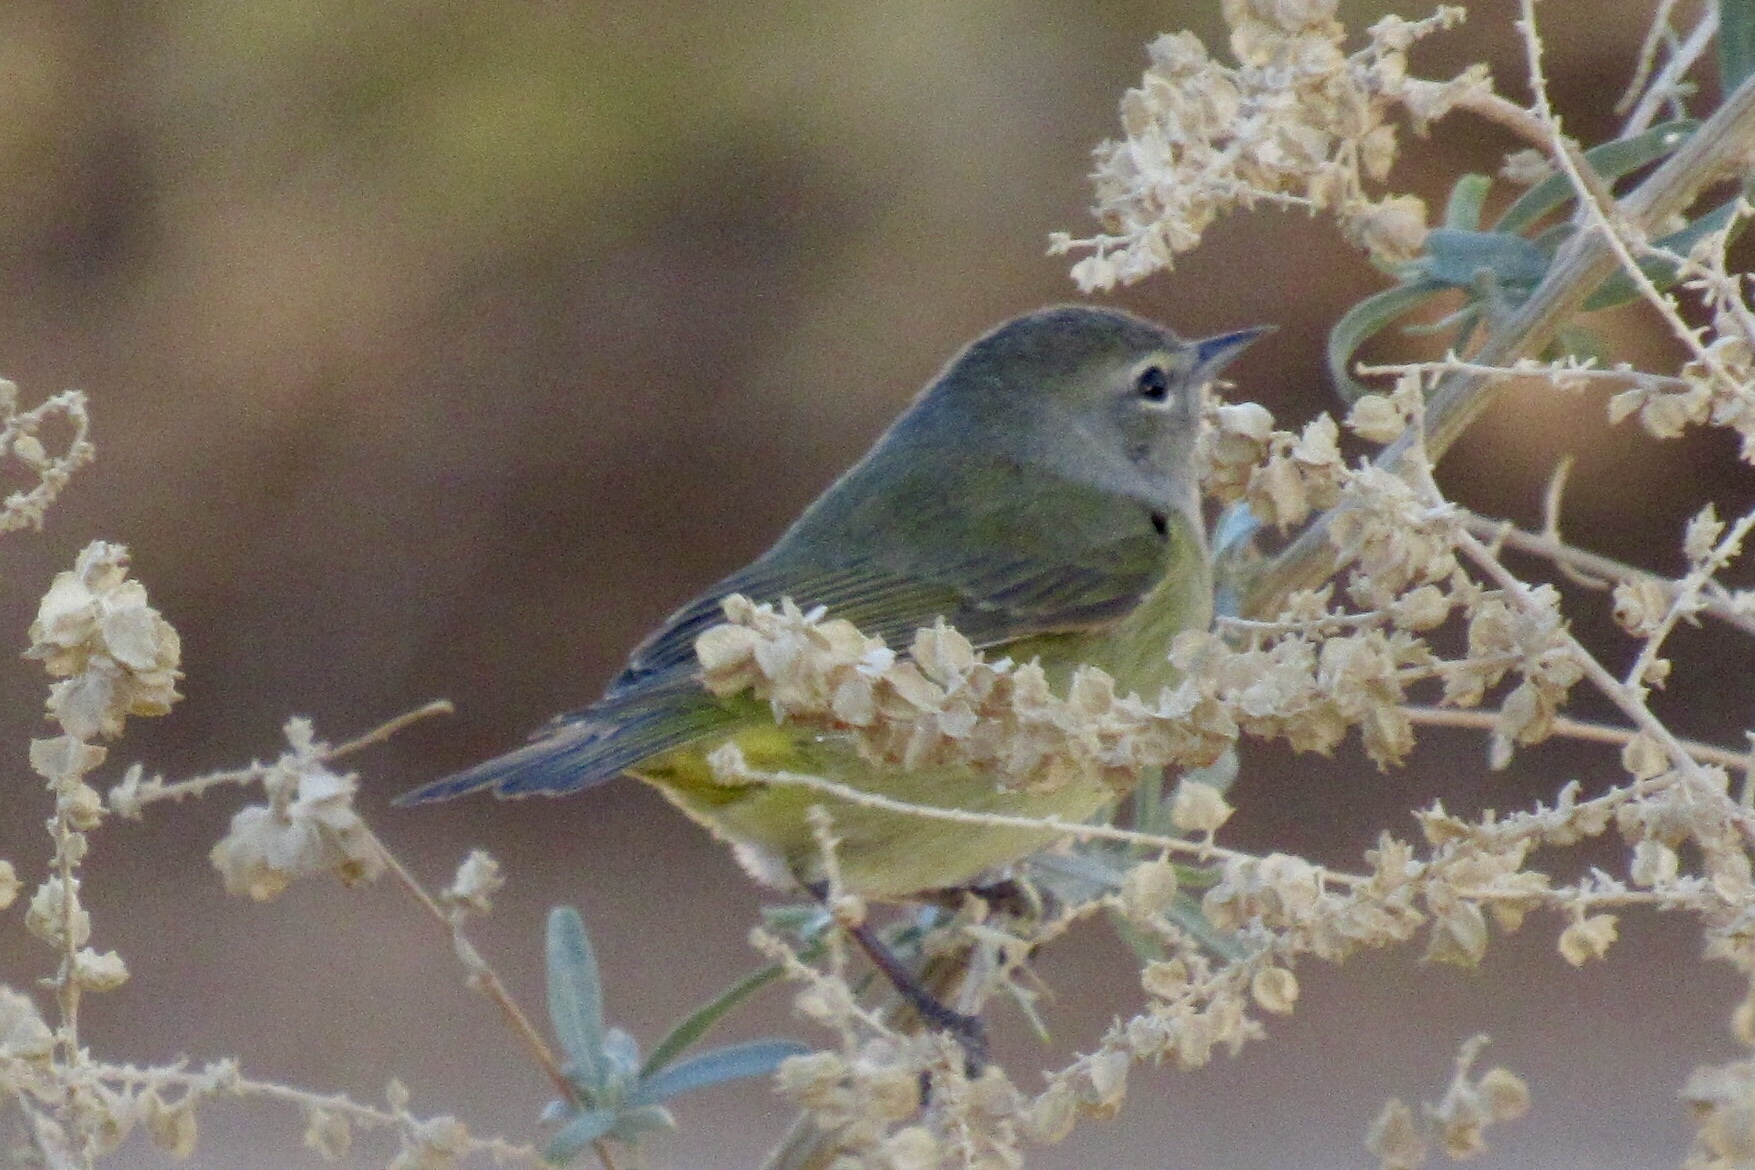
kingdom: Animalia
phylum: Chordata
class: Aves
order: Passeriformes
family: Parulidae
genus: Leiothlypis
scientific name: Leiothlypis celata
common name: Orange-crowned warbler
